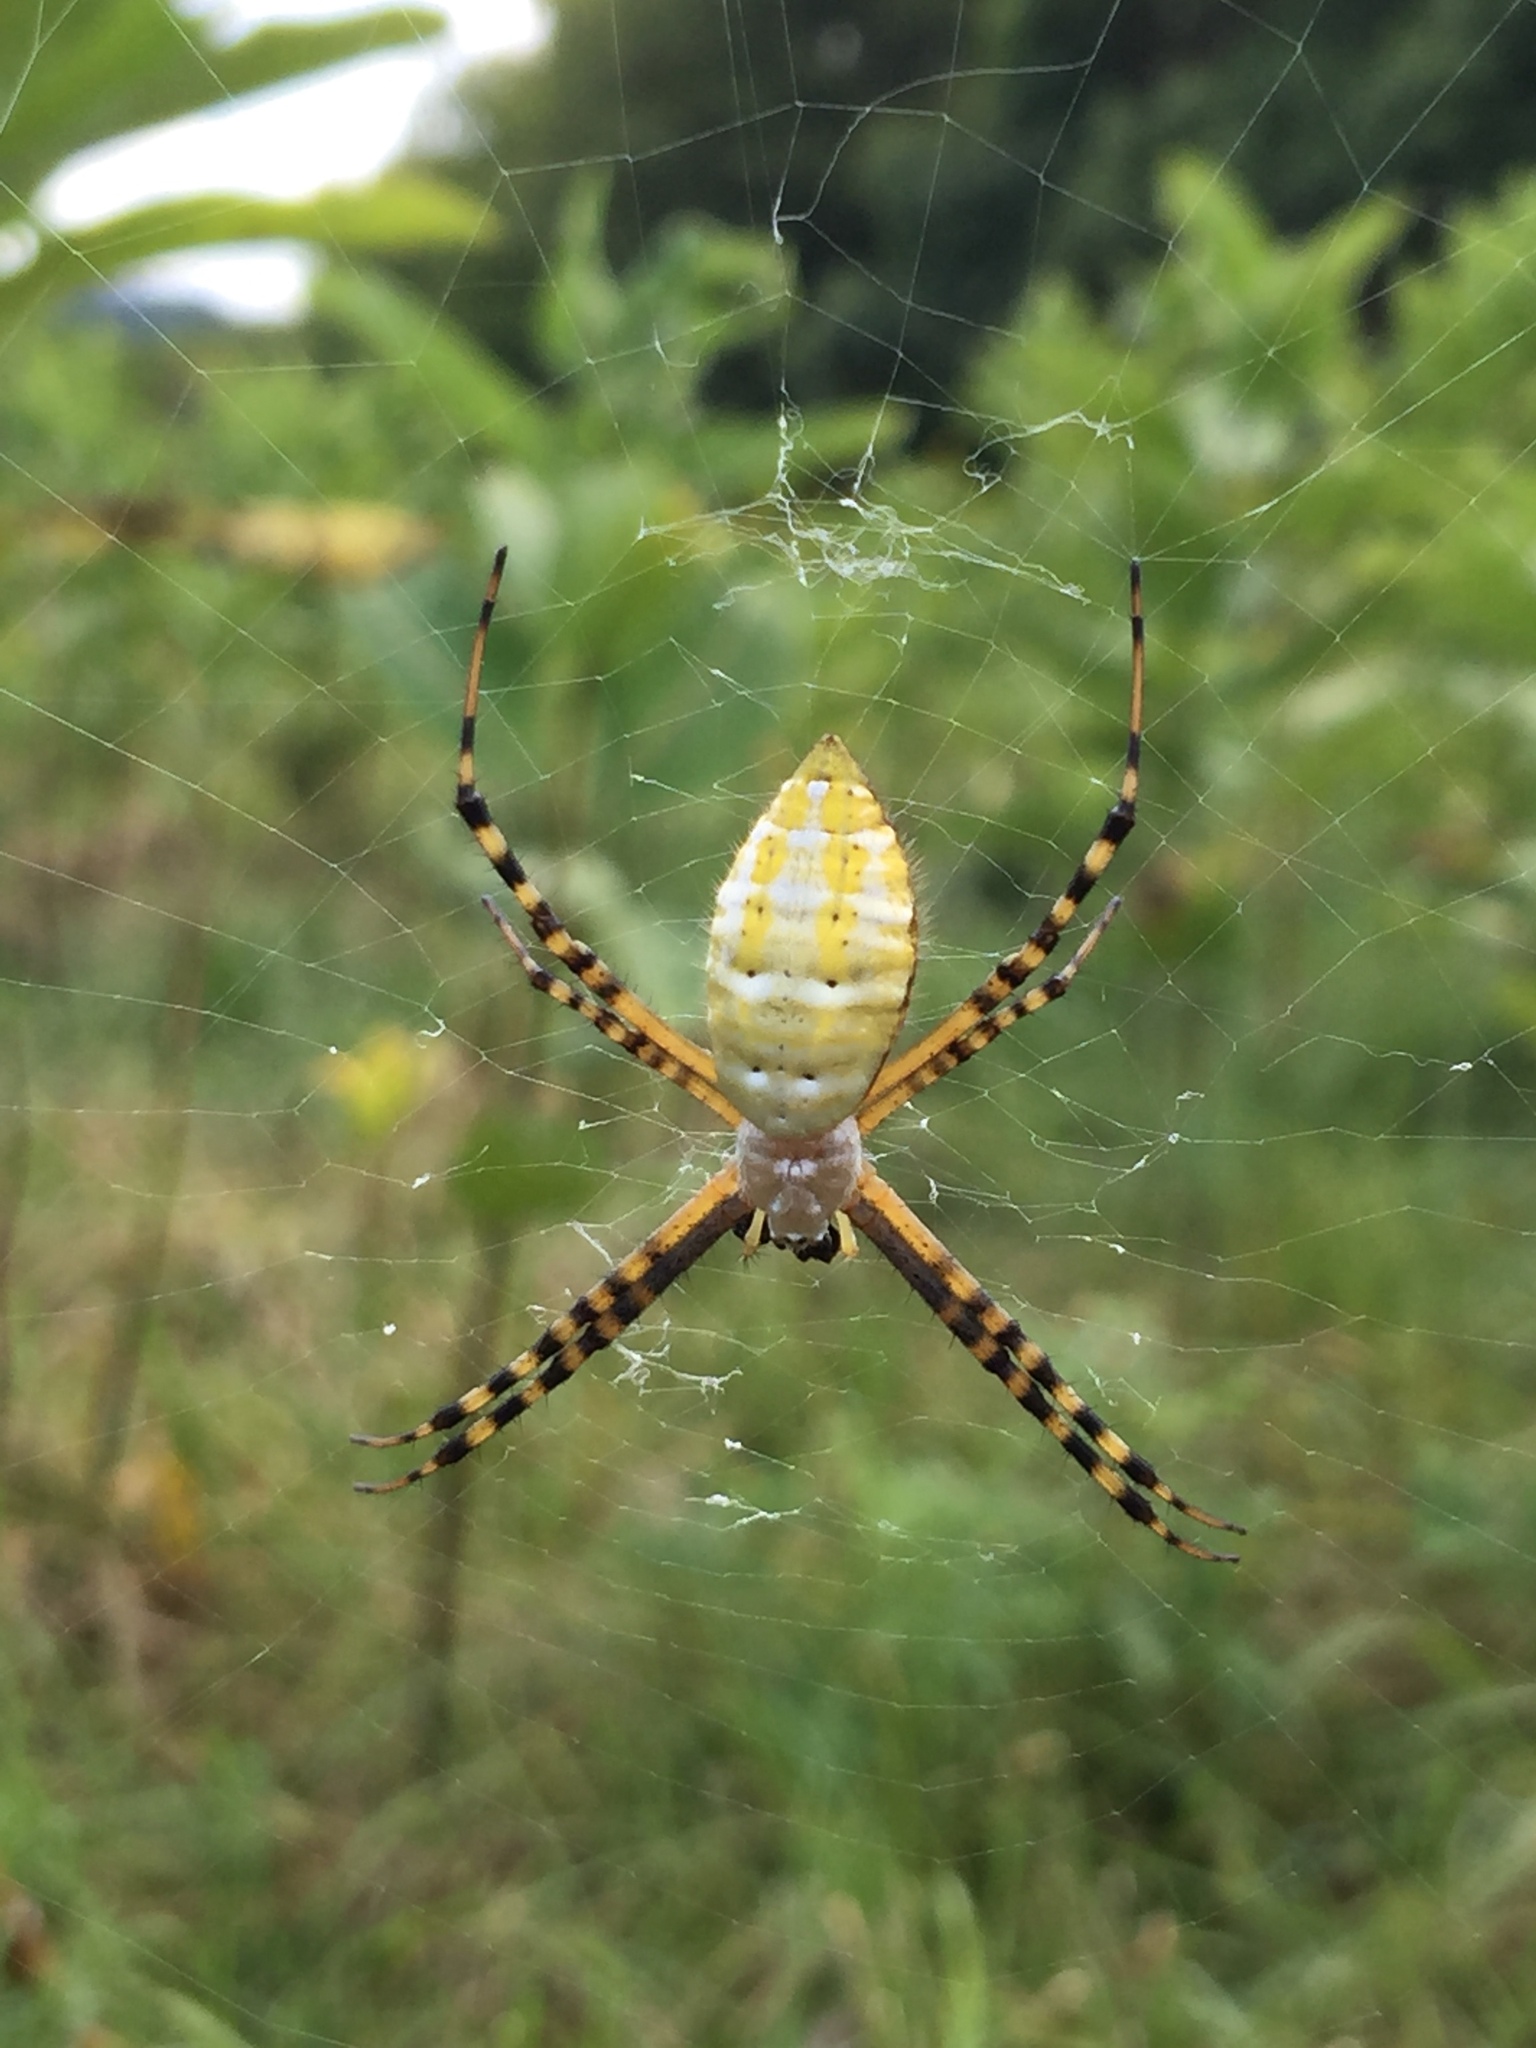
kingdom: Animalia
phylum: Arthropoda
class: Arachnida
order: Araneae
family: Araneidae
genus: Argiope
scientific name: Argiope trifasciata
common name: Banded garden spider
